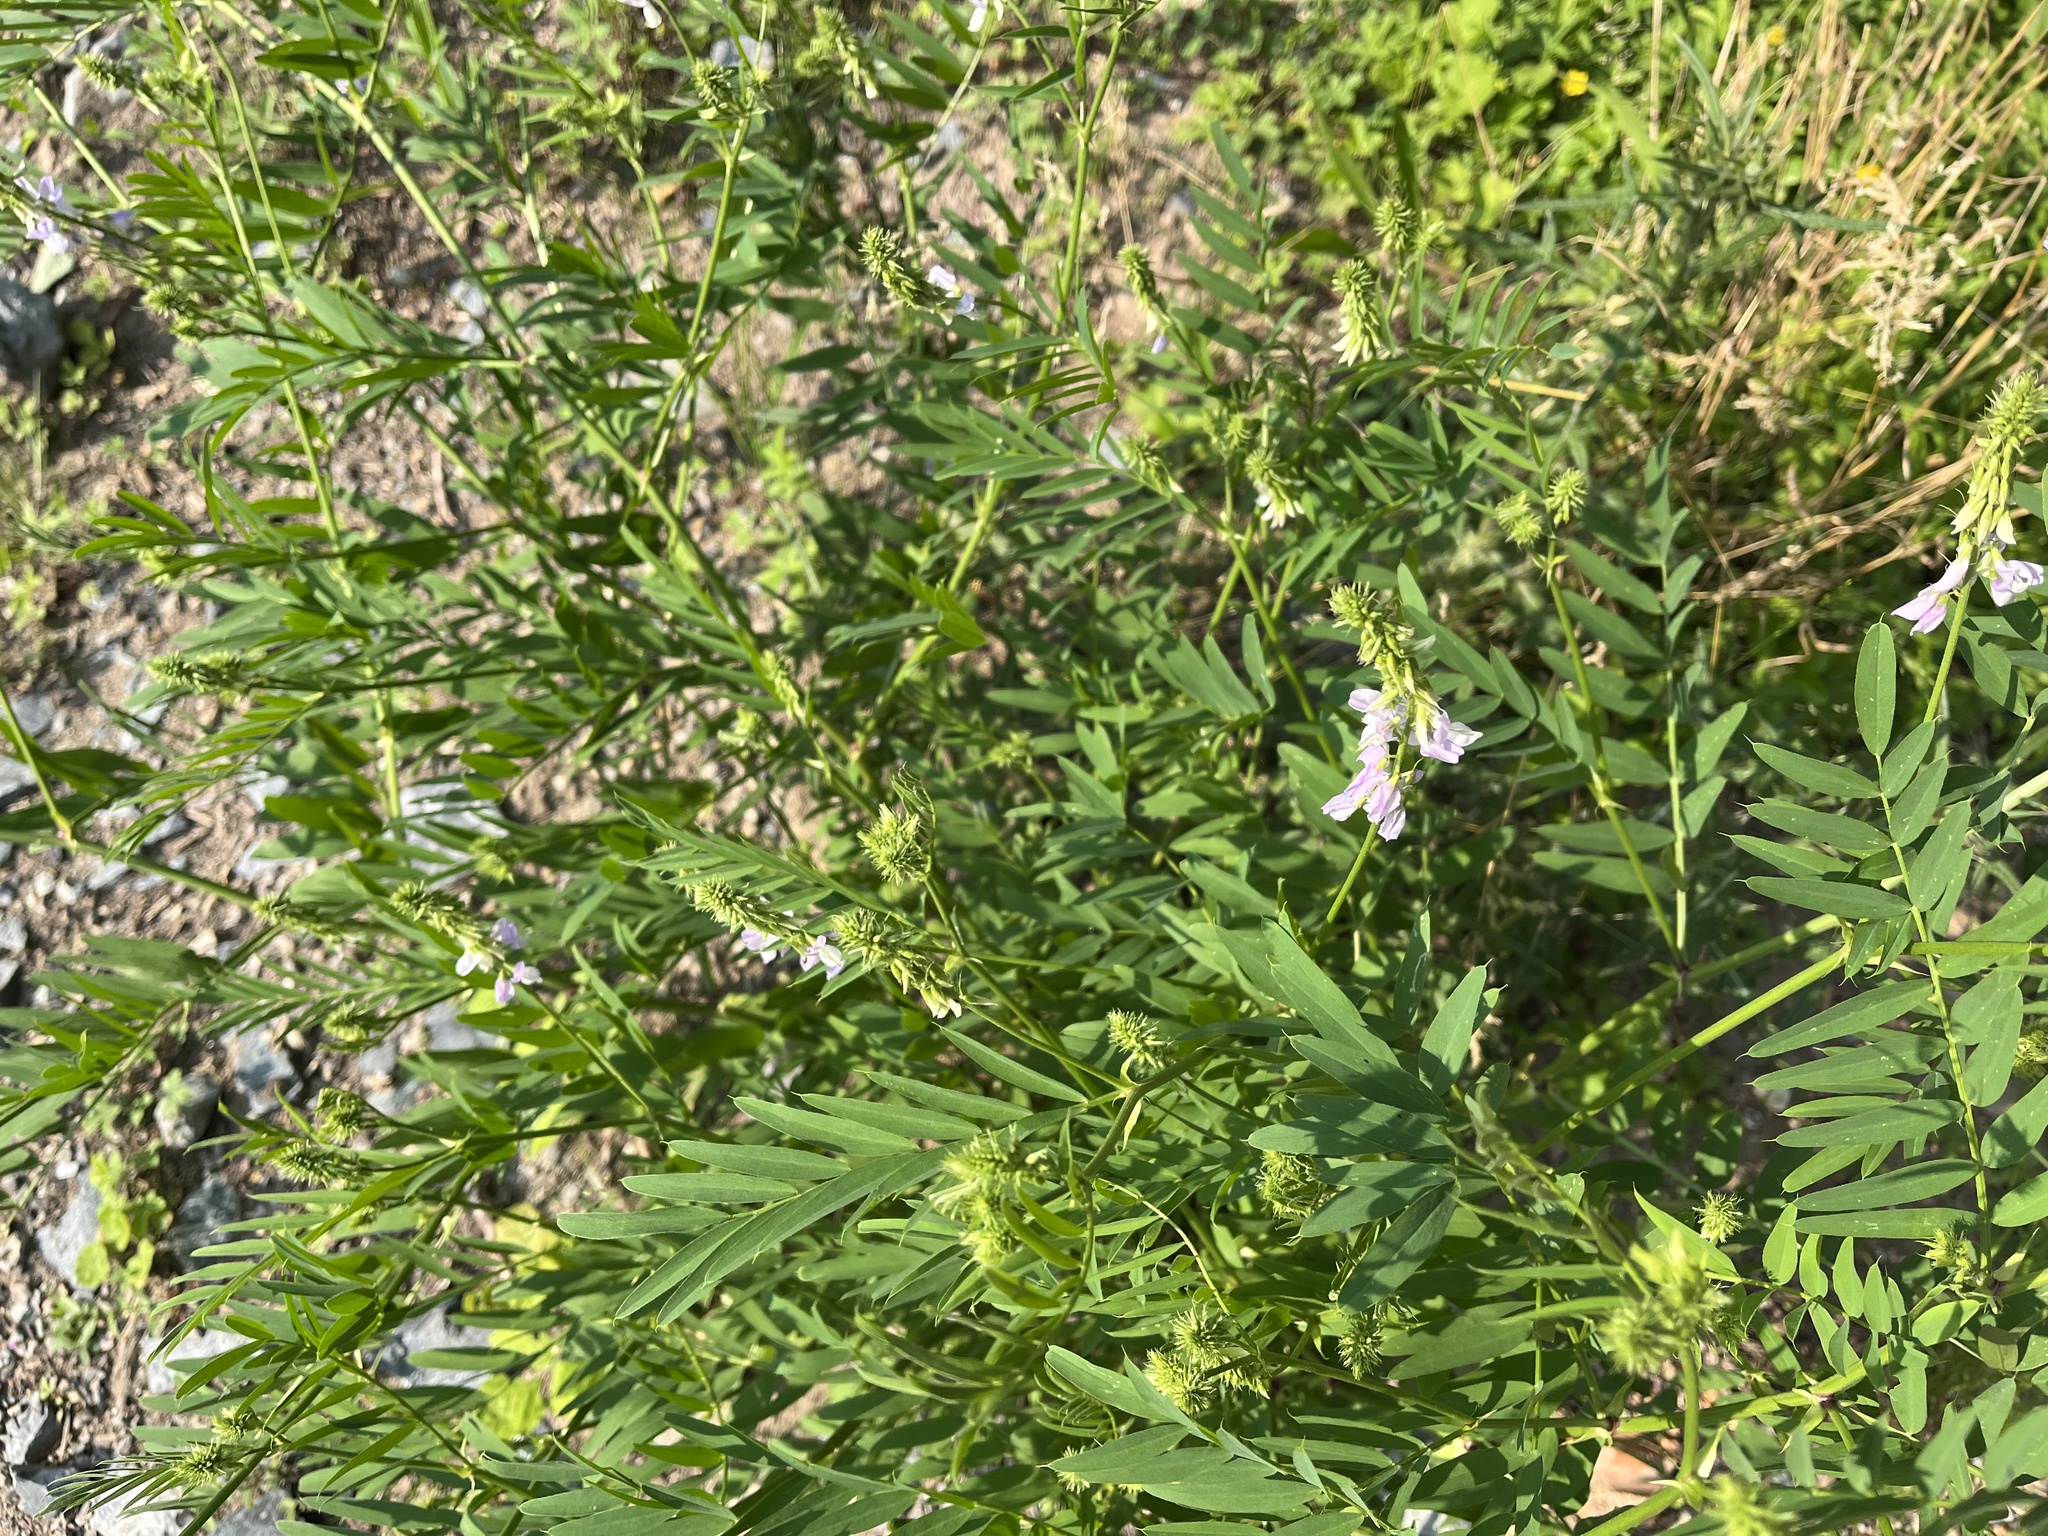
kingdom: Plantae
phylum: Tracheophyta
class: Magnoliopsida
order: Fabales
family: Fabaceae
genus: Galega
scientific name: Galega officinalis
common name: Goat's-rue
